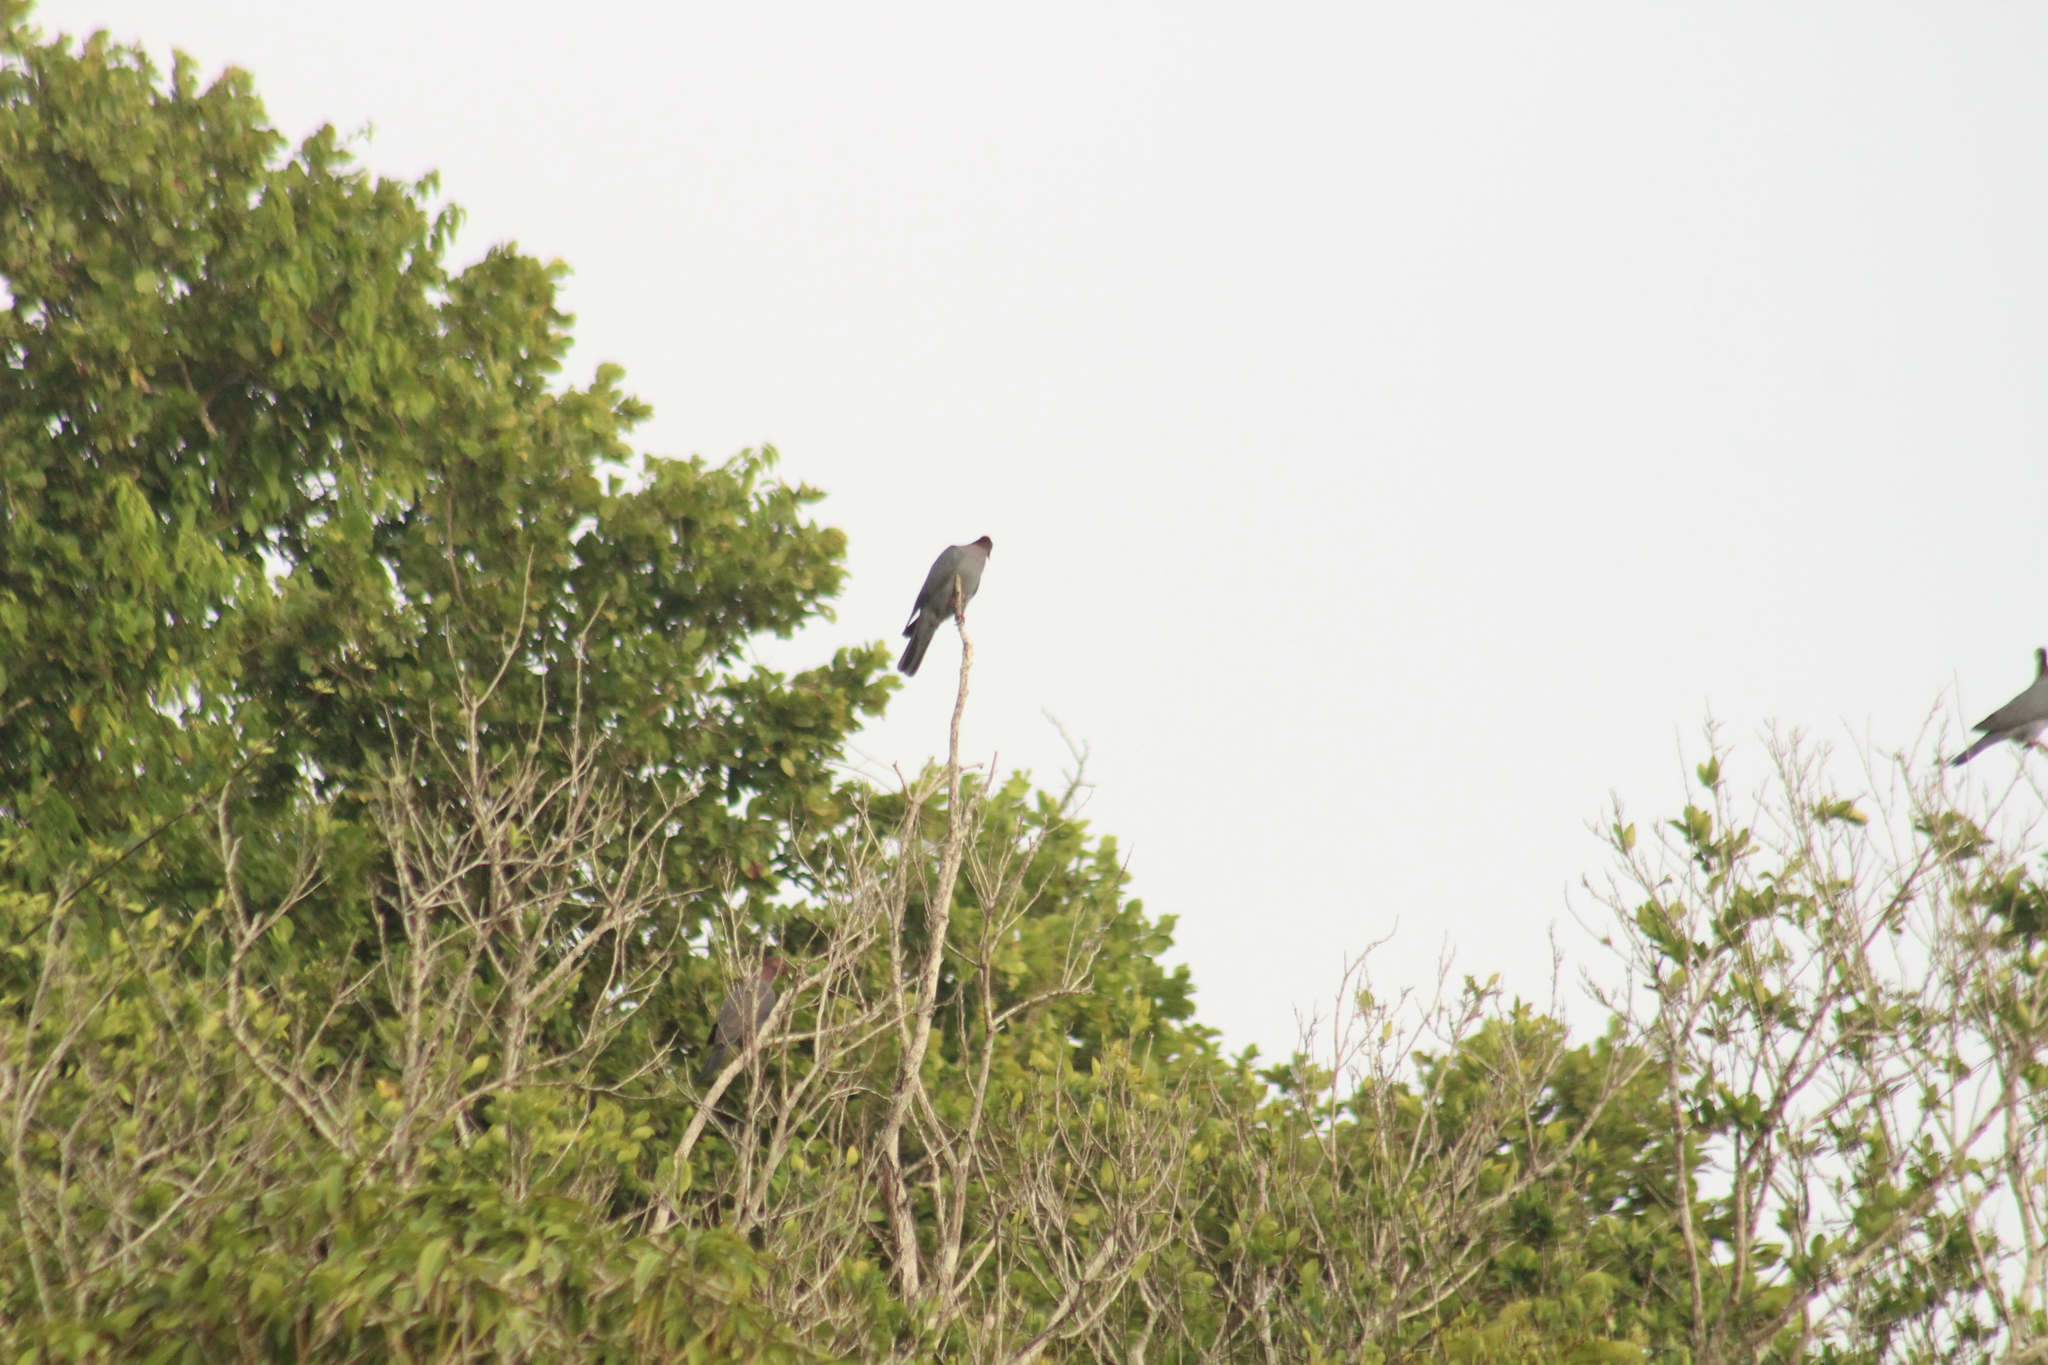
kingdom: Animalia
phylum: Chordata
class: Aves
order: Columbiformes
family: Columbidae
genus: Patagioenas
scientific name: Patagioenas squamosa
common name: Scaly-naped pigeon
